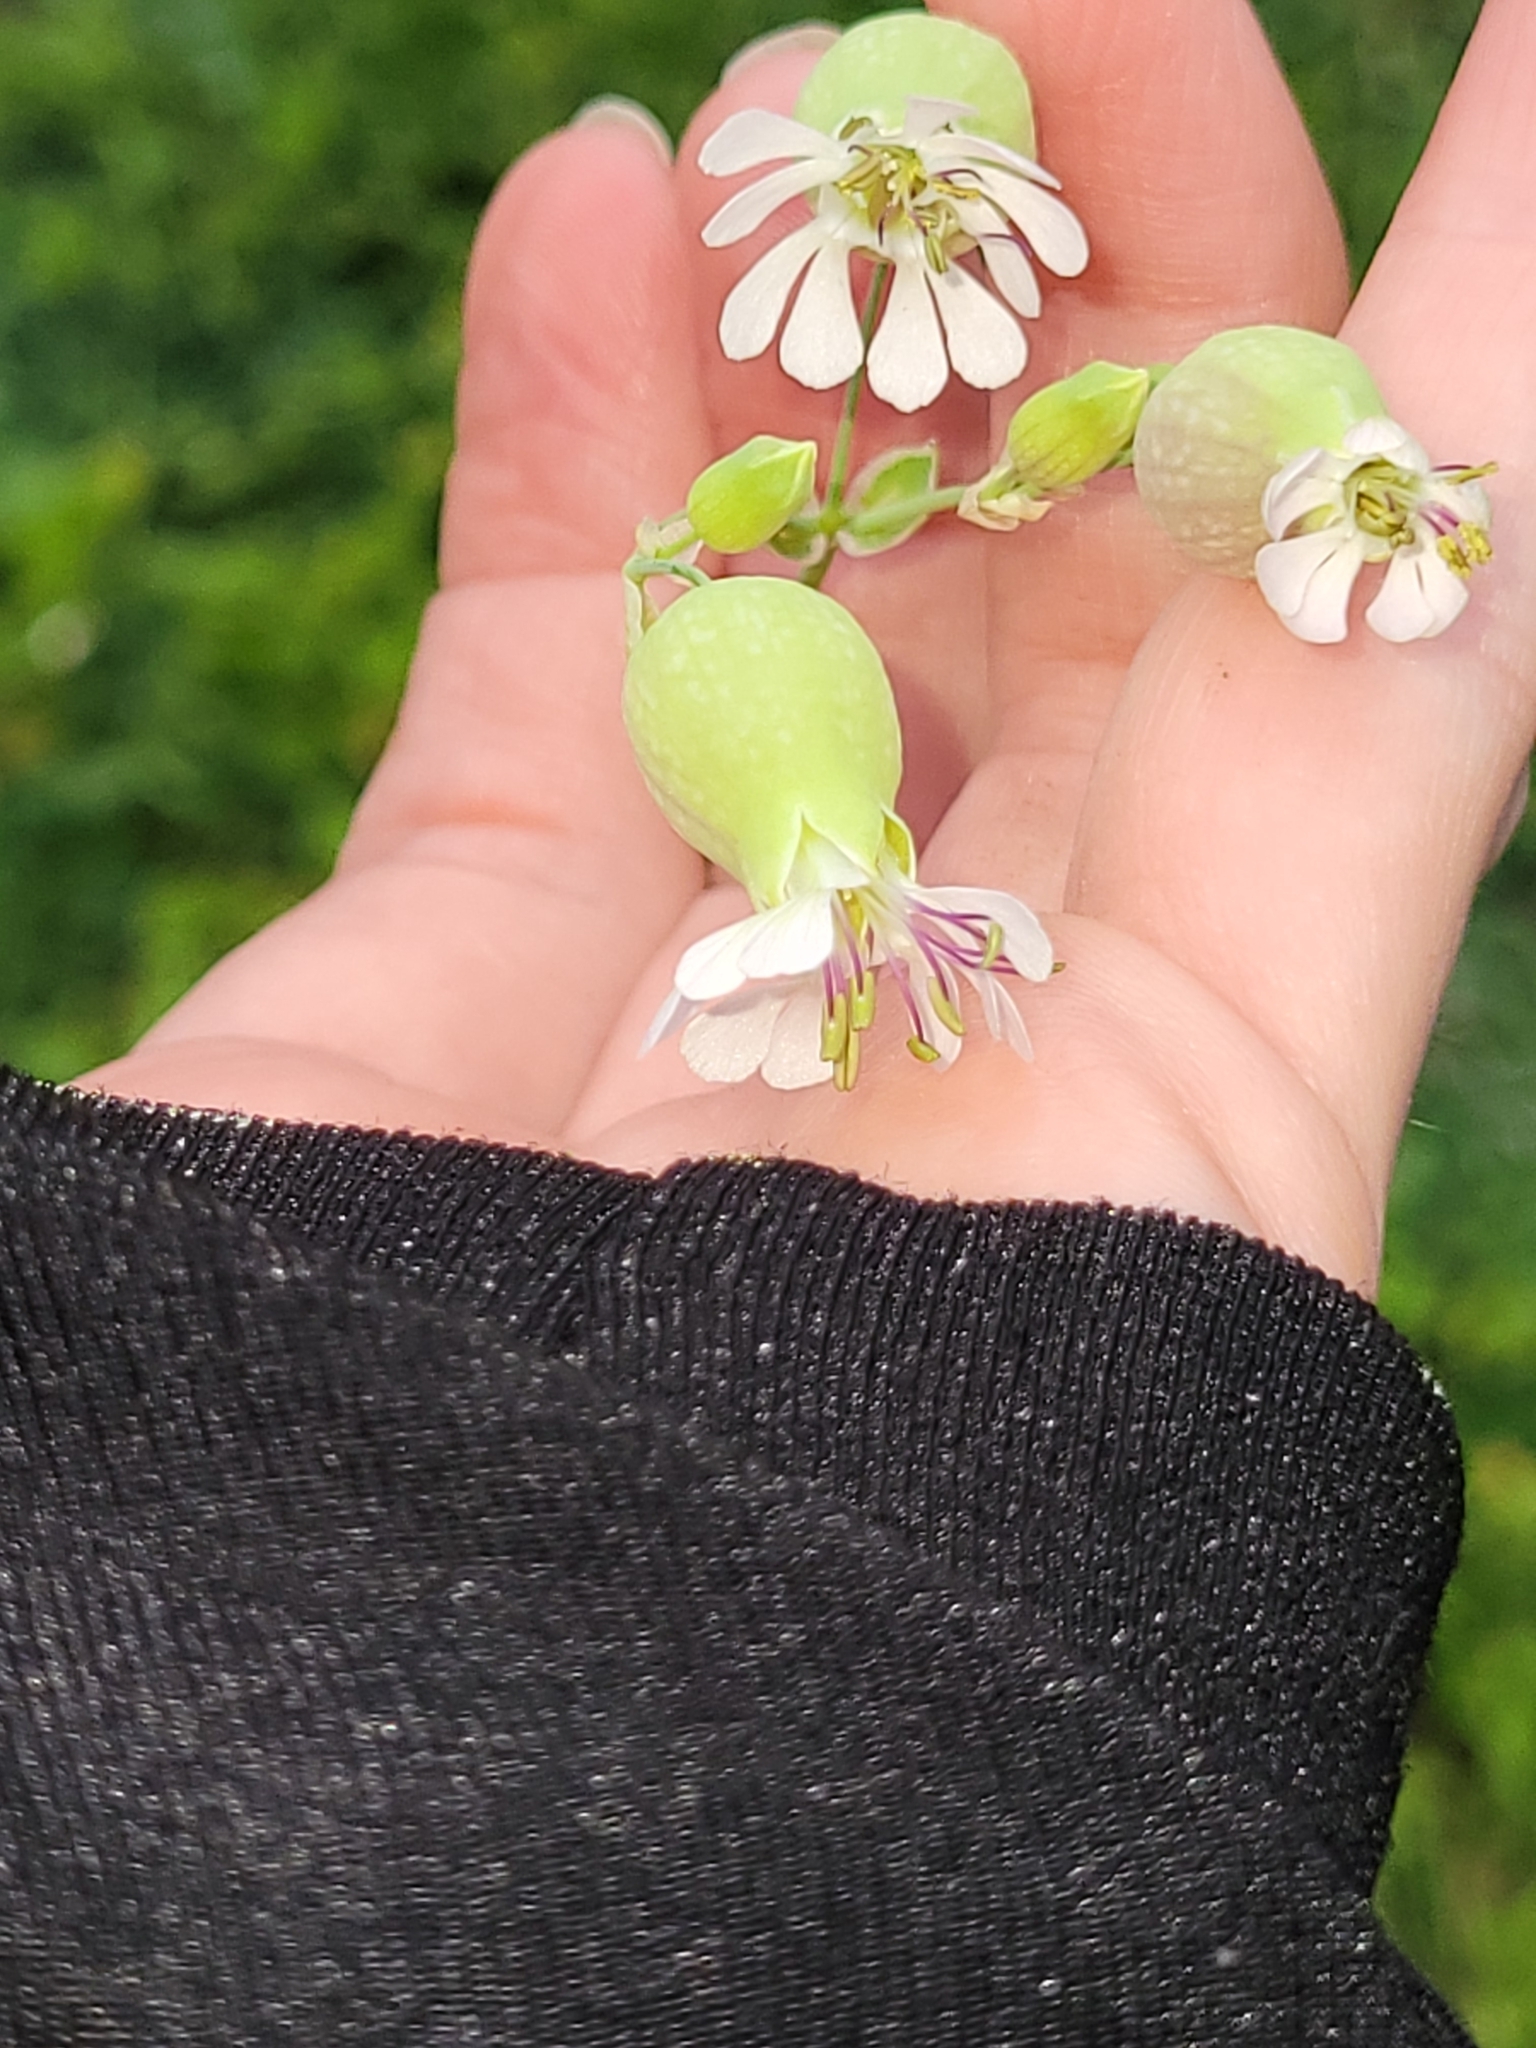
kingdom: Plantae
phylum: Tracheophyta
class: Magnoliopsida
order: Caryophyllales
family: Caryophyllaceae
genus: Silene
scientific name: Silene vulgaris
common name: Bladder campion
